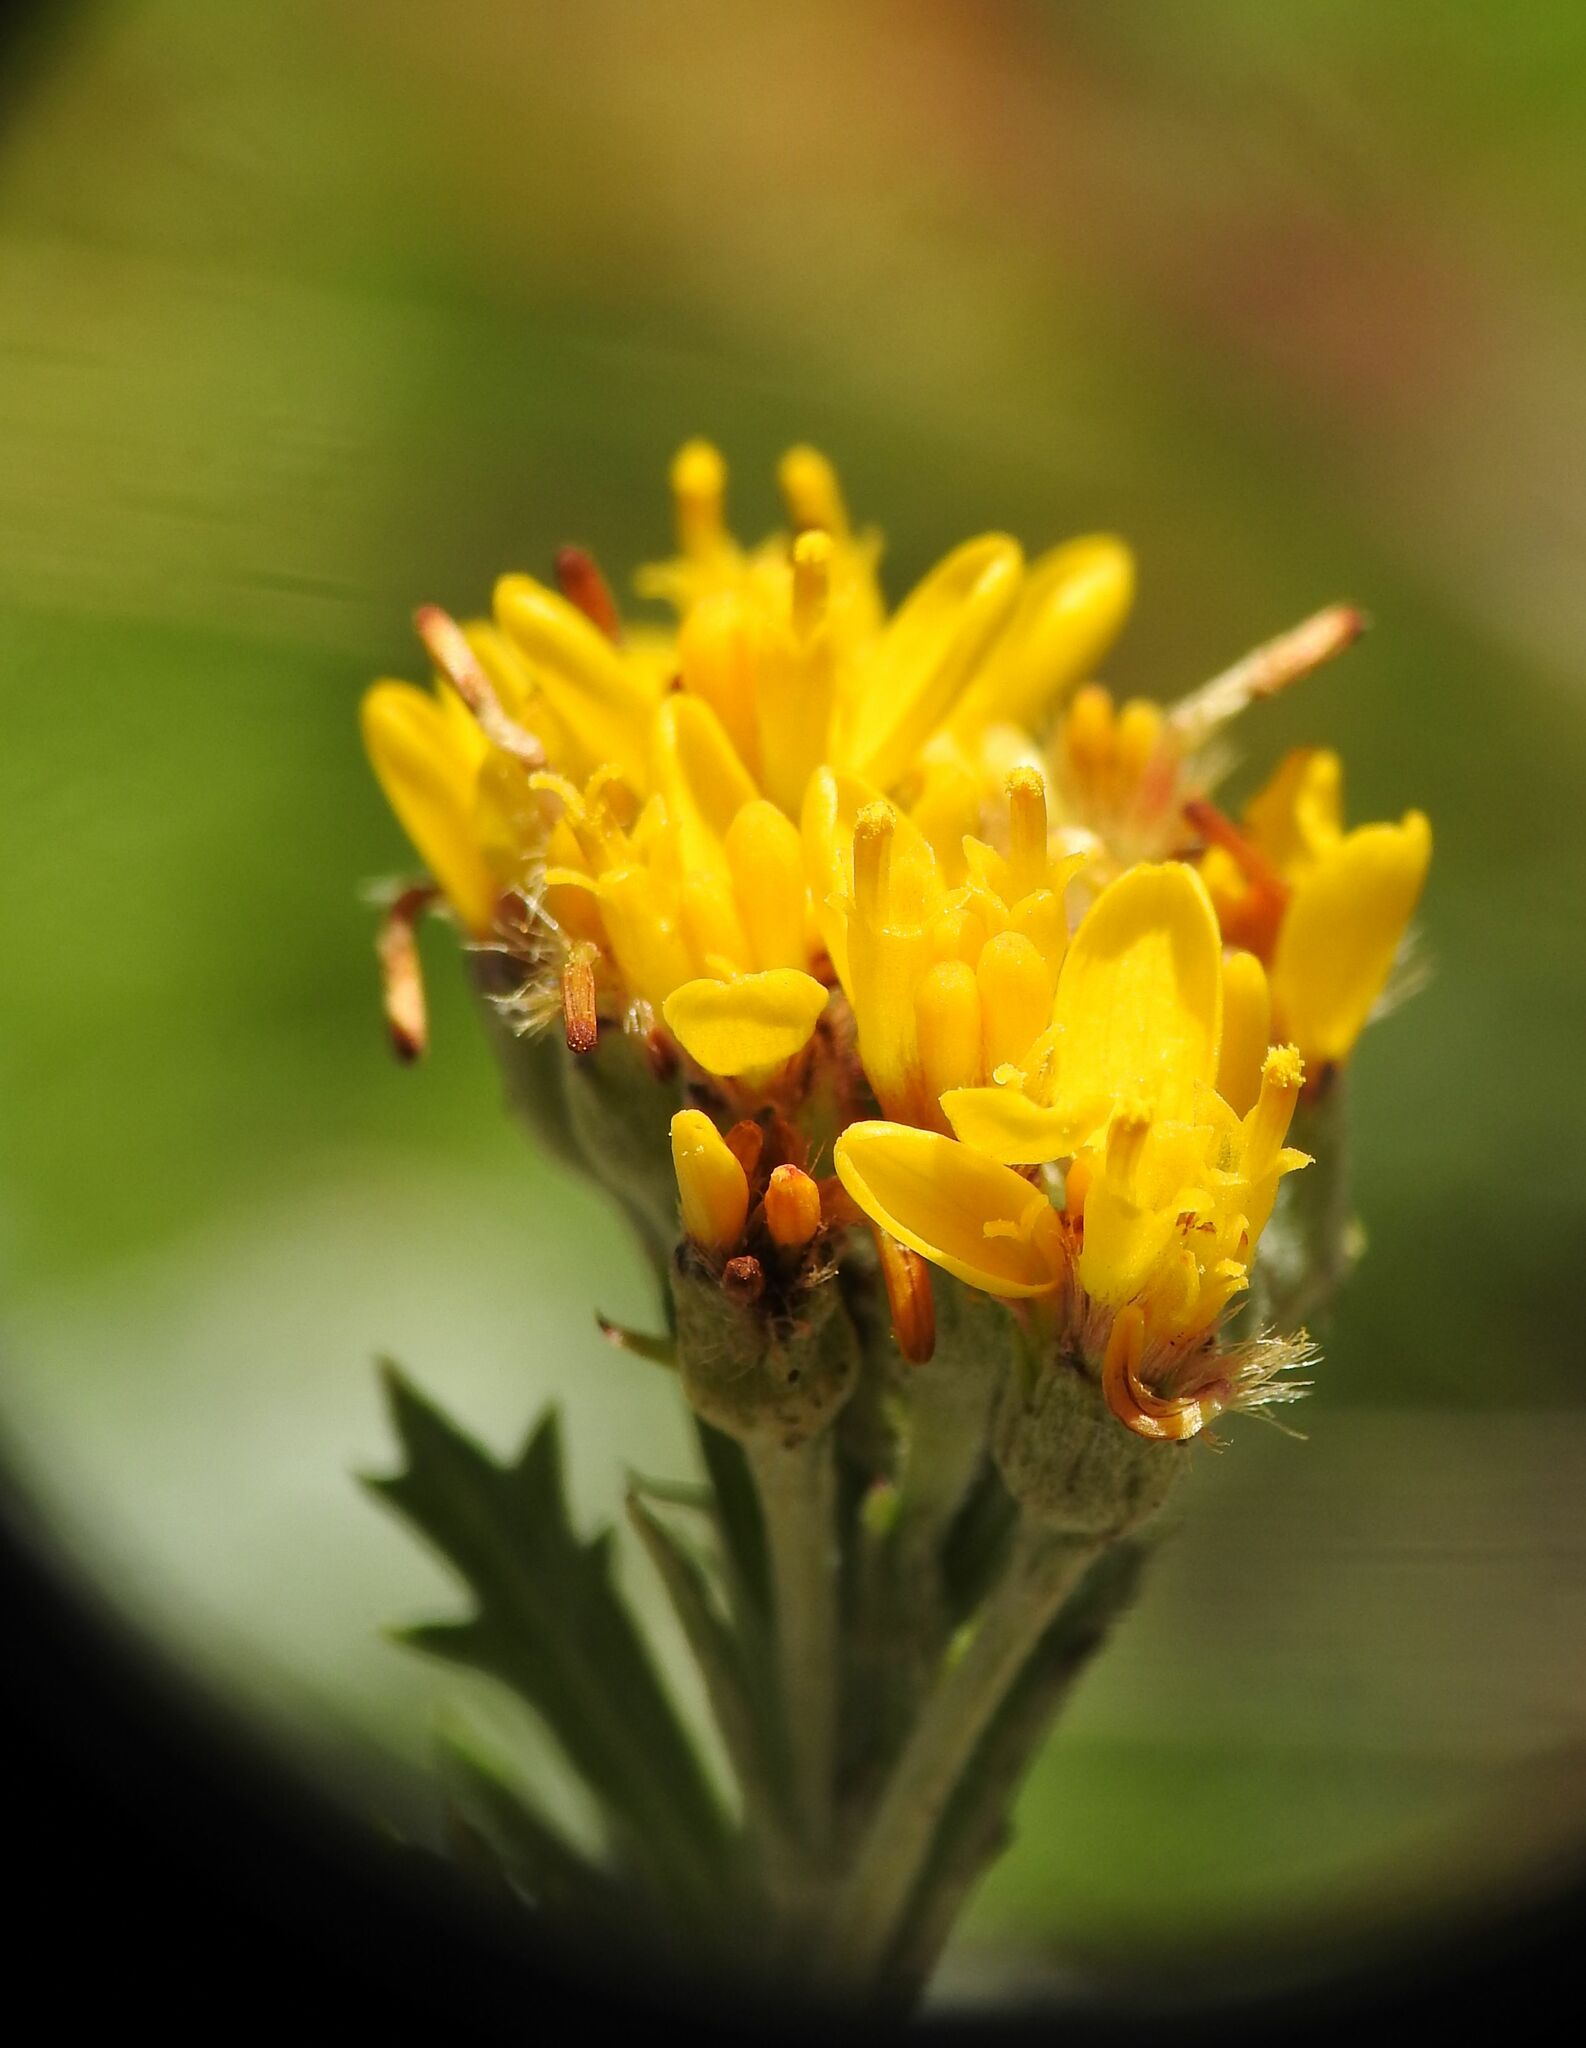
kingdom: Plantae
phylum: Tracheophyta
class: Magnoliopsida
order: Asterales
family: Asteraceae
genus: Jacobaea
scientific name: Jacobaea incana
